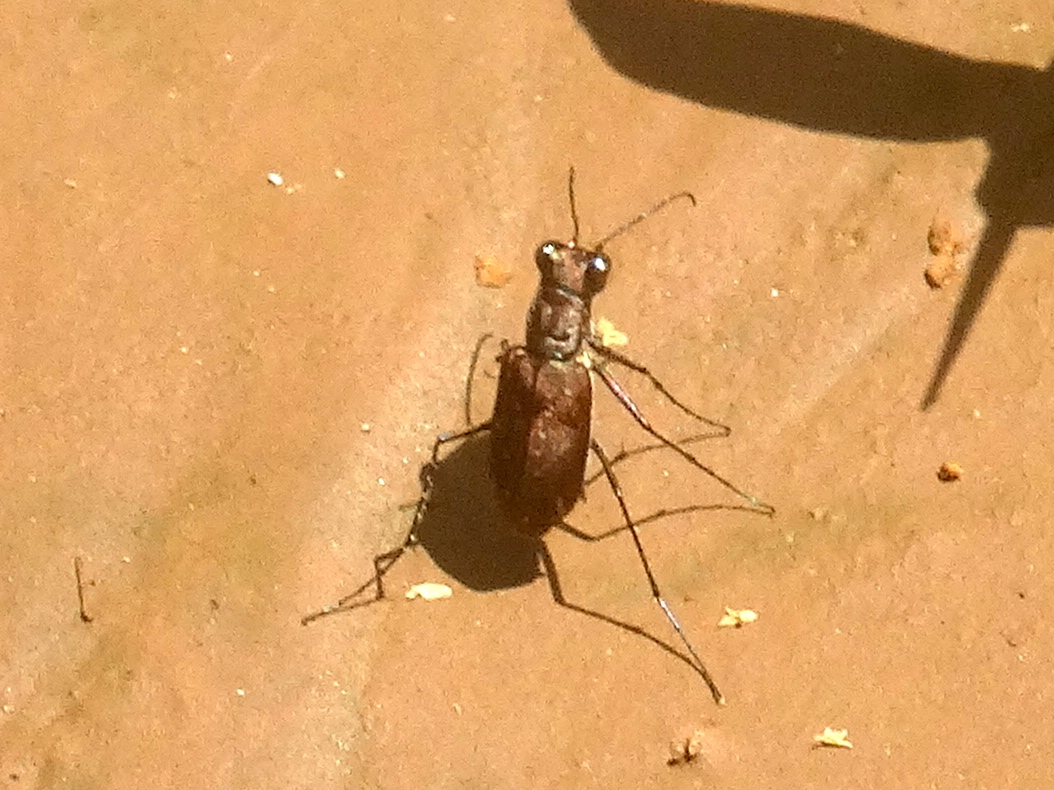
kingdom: Animalia
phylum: Arthropoda
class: Insecta
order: Coleoptera
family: Carabidae
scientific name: Carabidae
